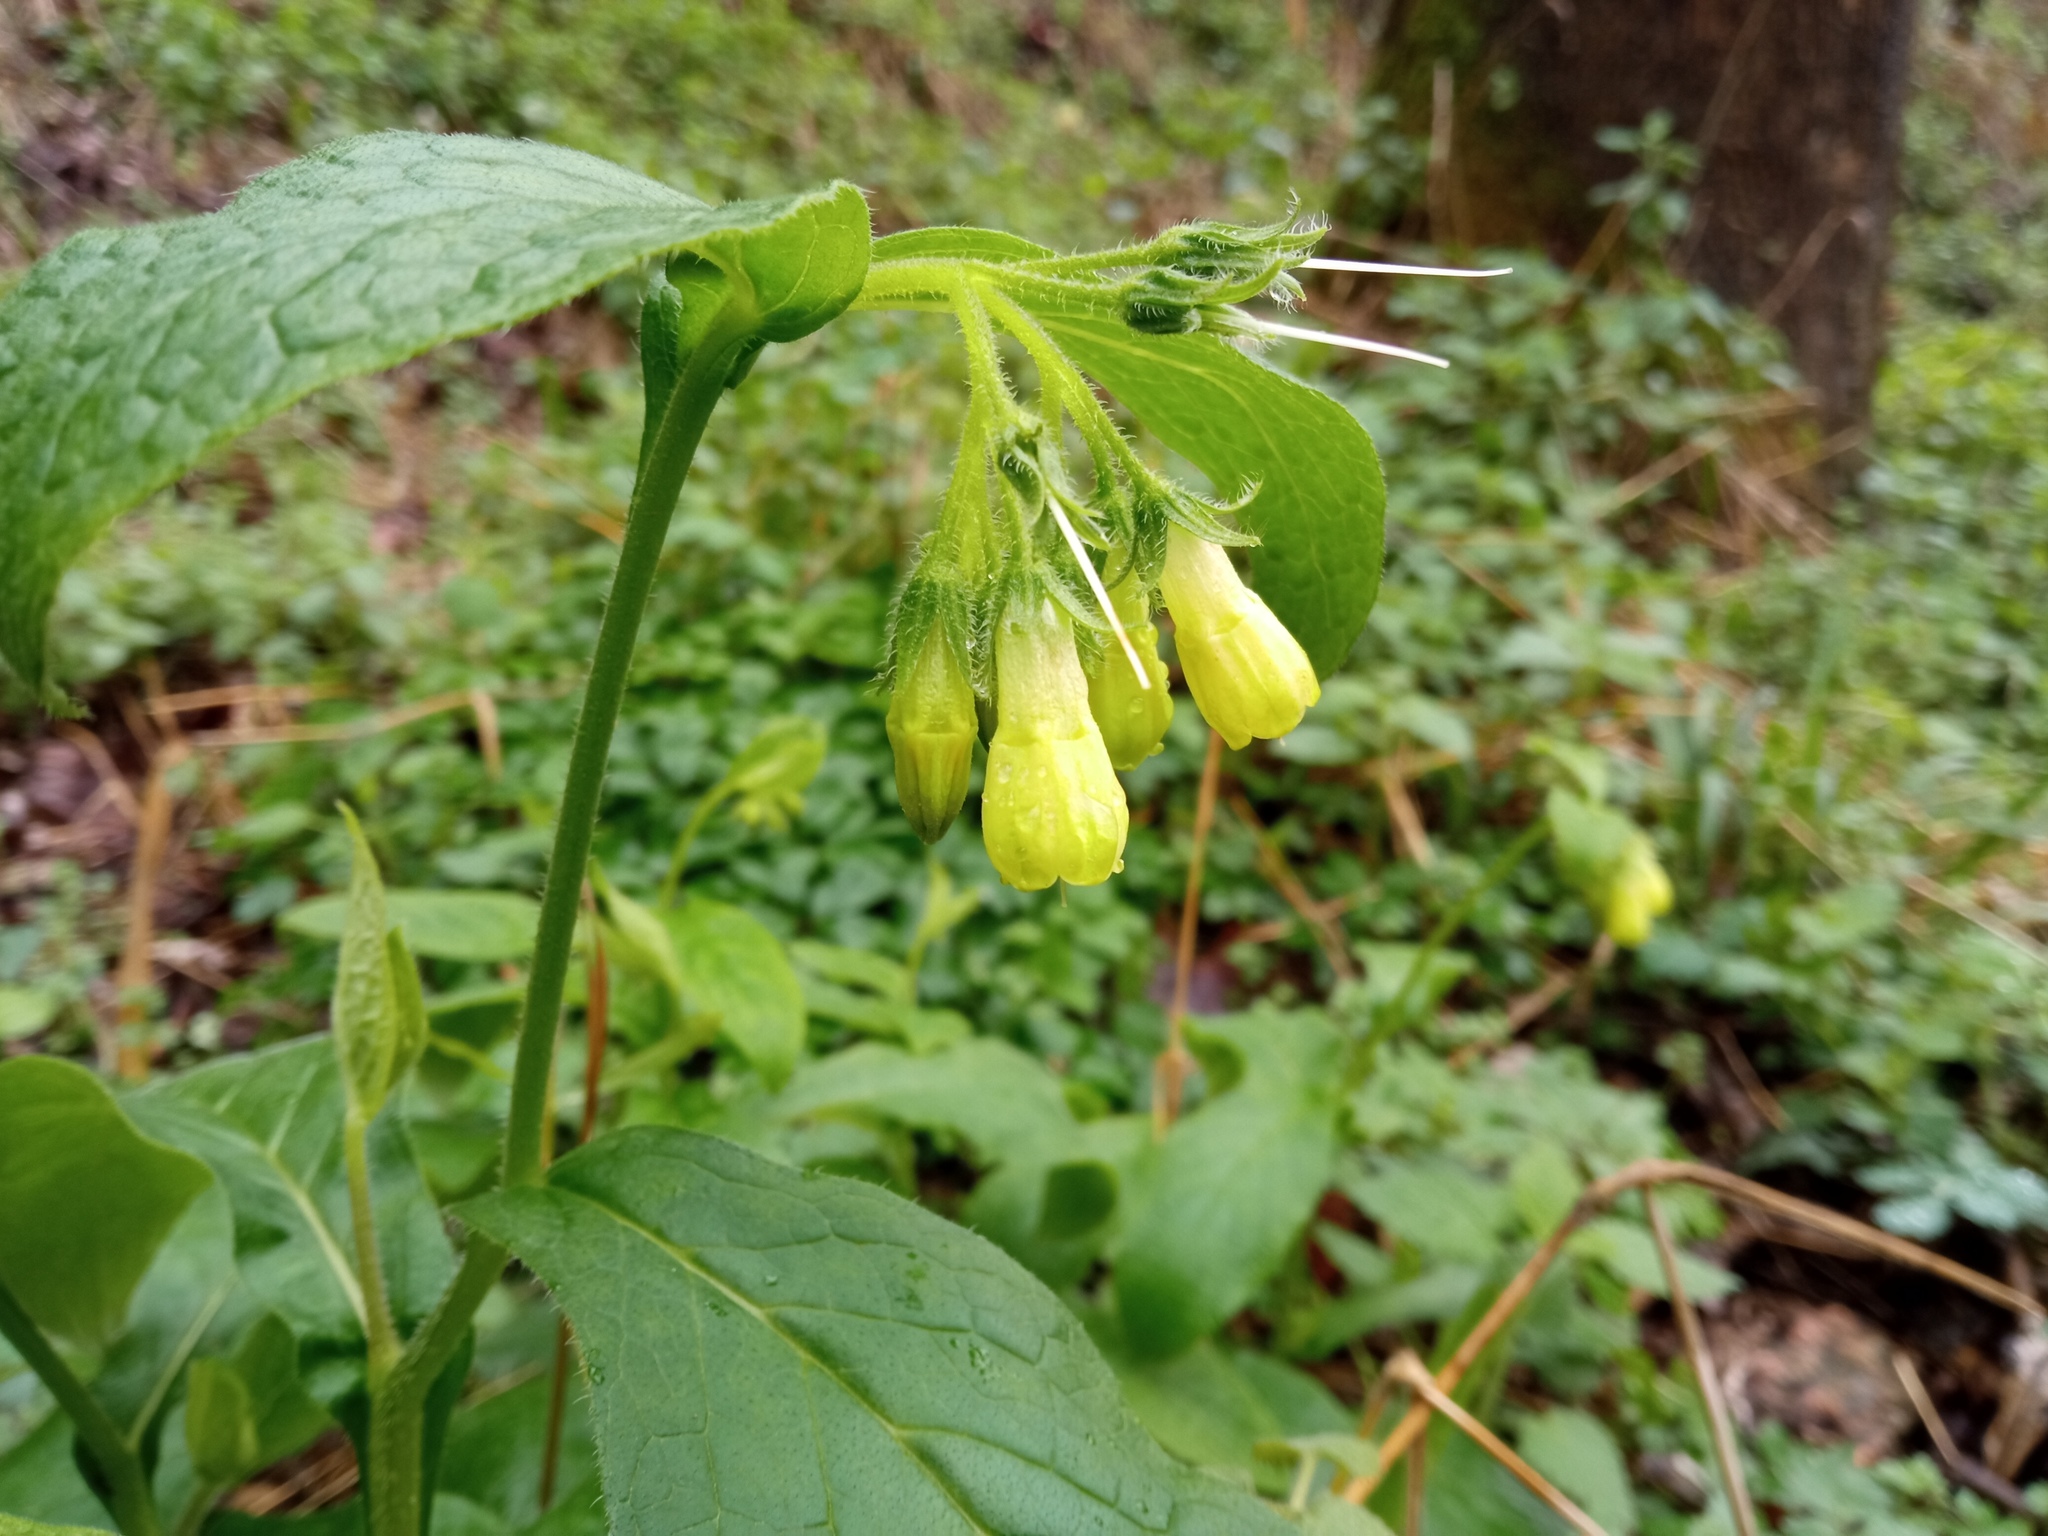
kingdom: Plantae
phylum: Tracheophyta
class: Magnoliopsida
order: Boraginales
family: Boraginaceae
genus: Symphytum
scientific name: Symphytum tuberosum
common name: Tuberous comfrey
